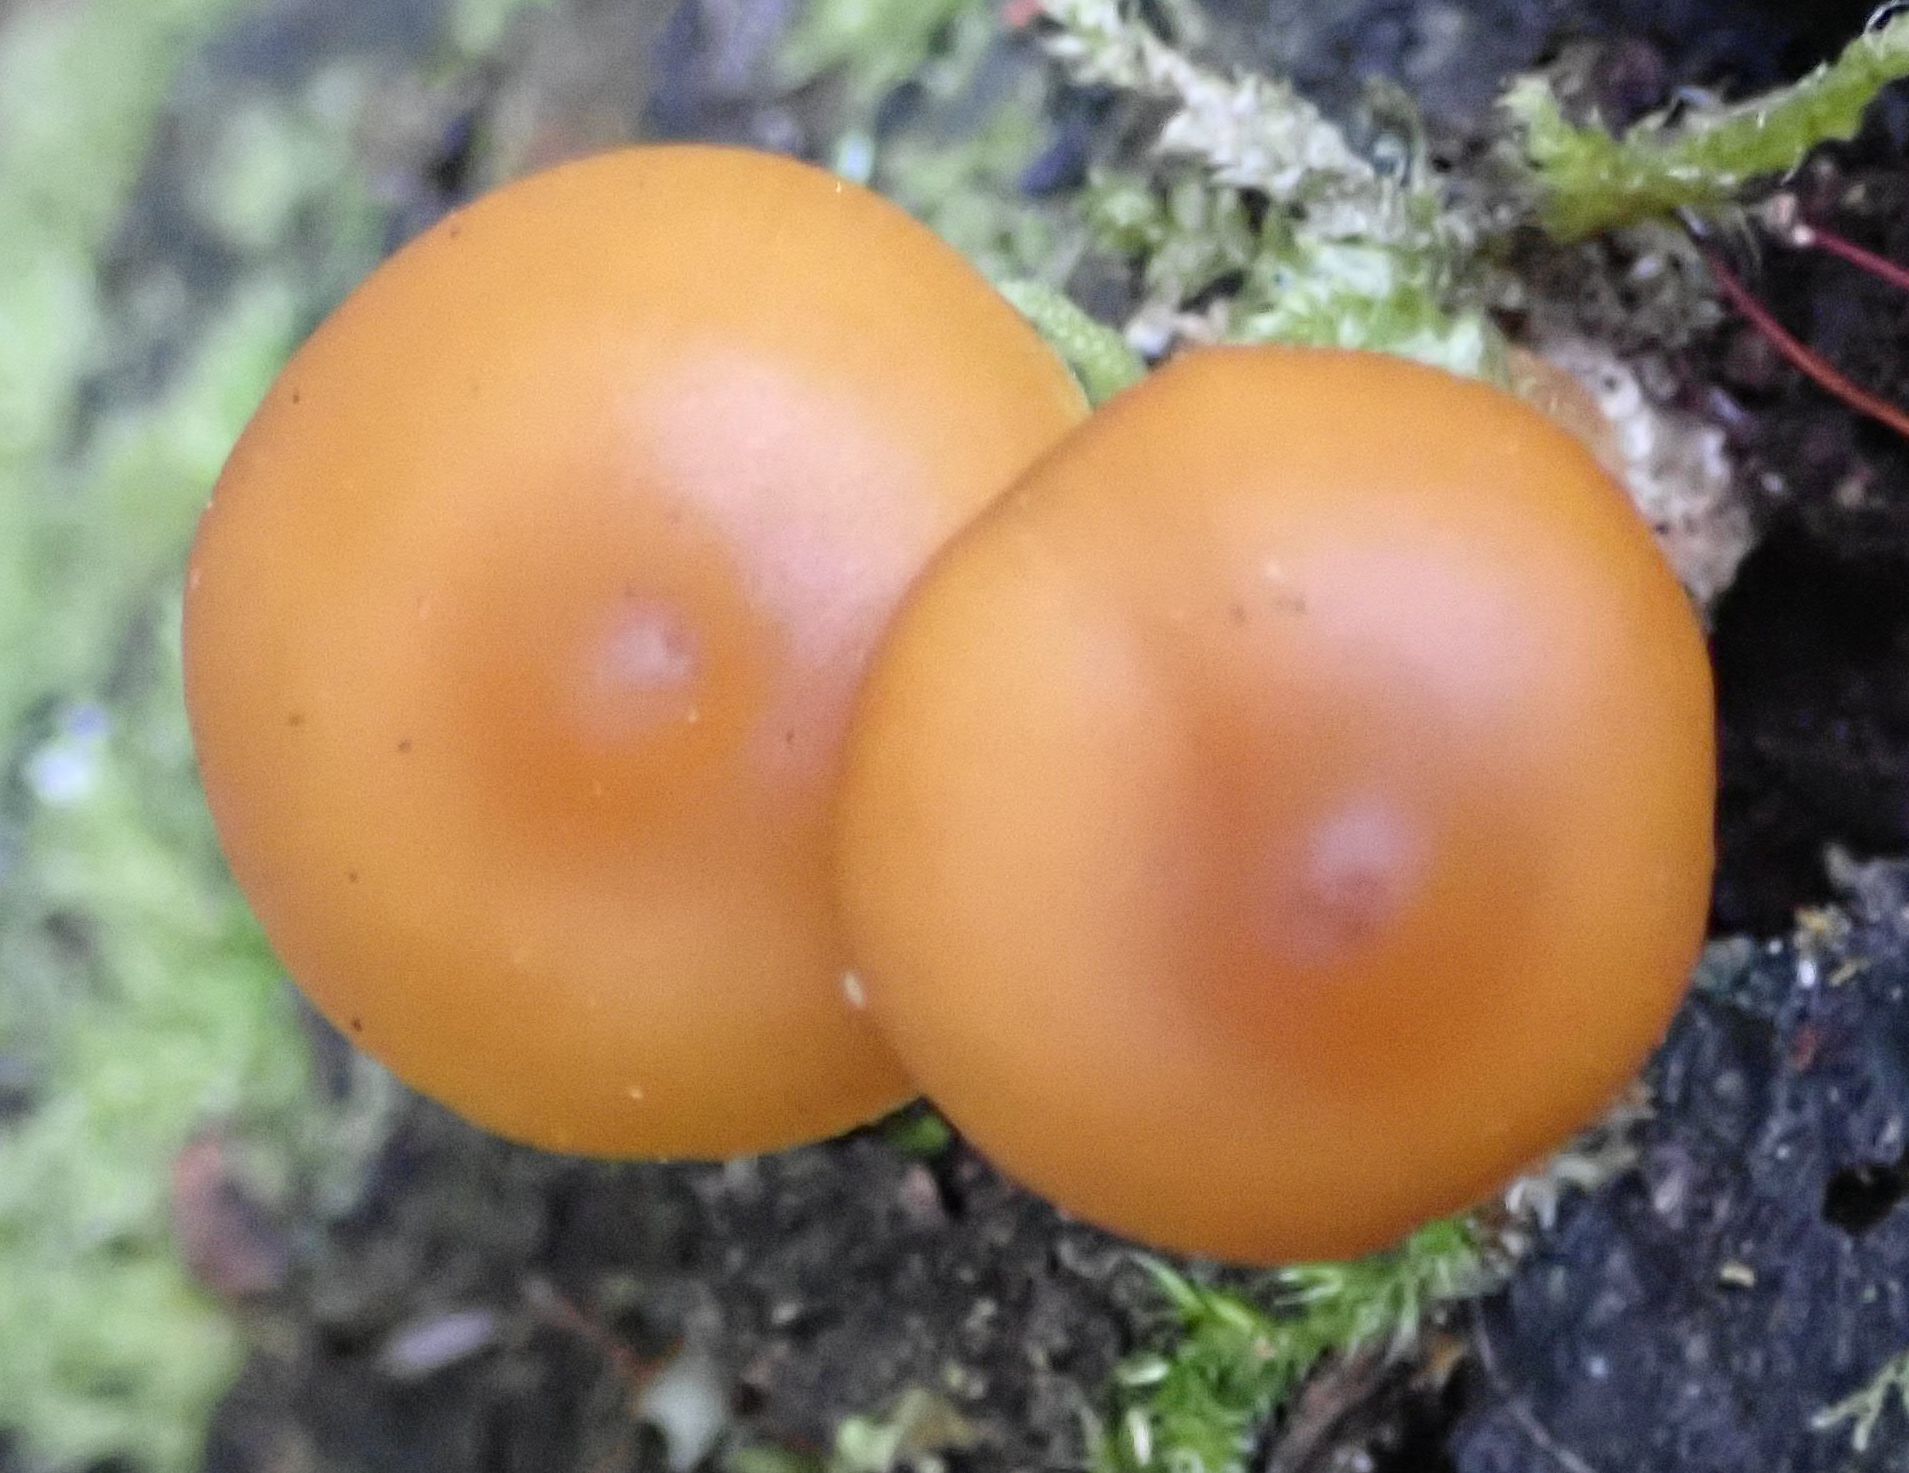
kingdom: Fungi
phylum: Basidiomycota
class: Agaricomycetes
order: Agaricales
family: Hymenogastraceae
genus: Galerina
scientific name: Galerina patagonica
